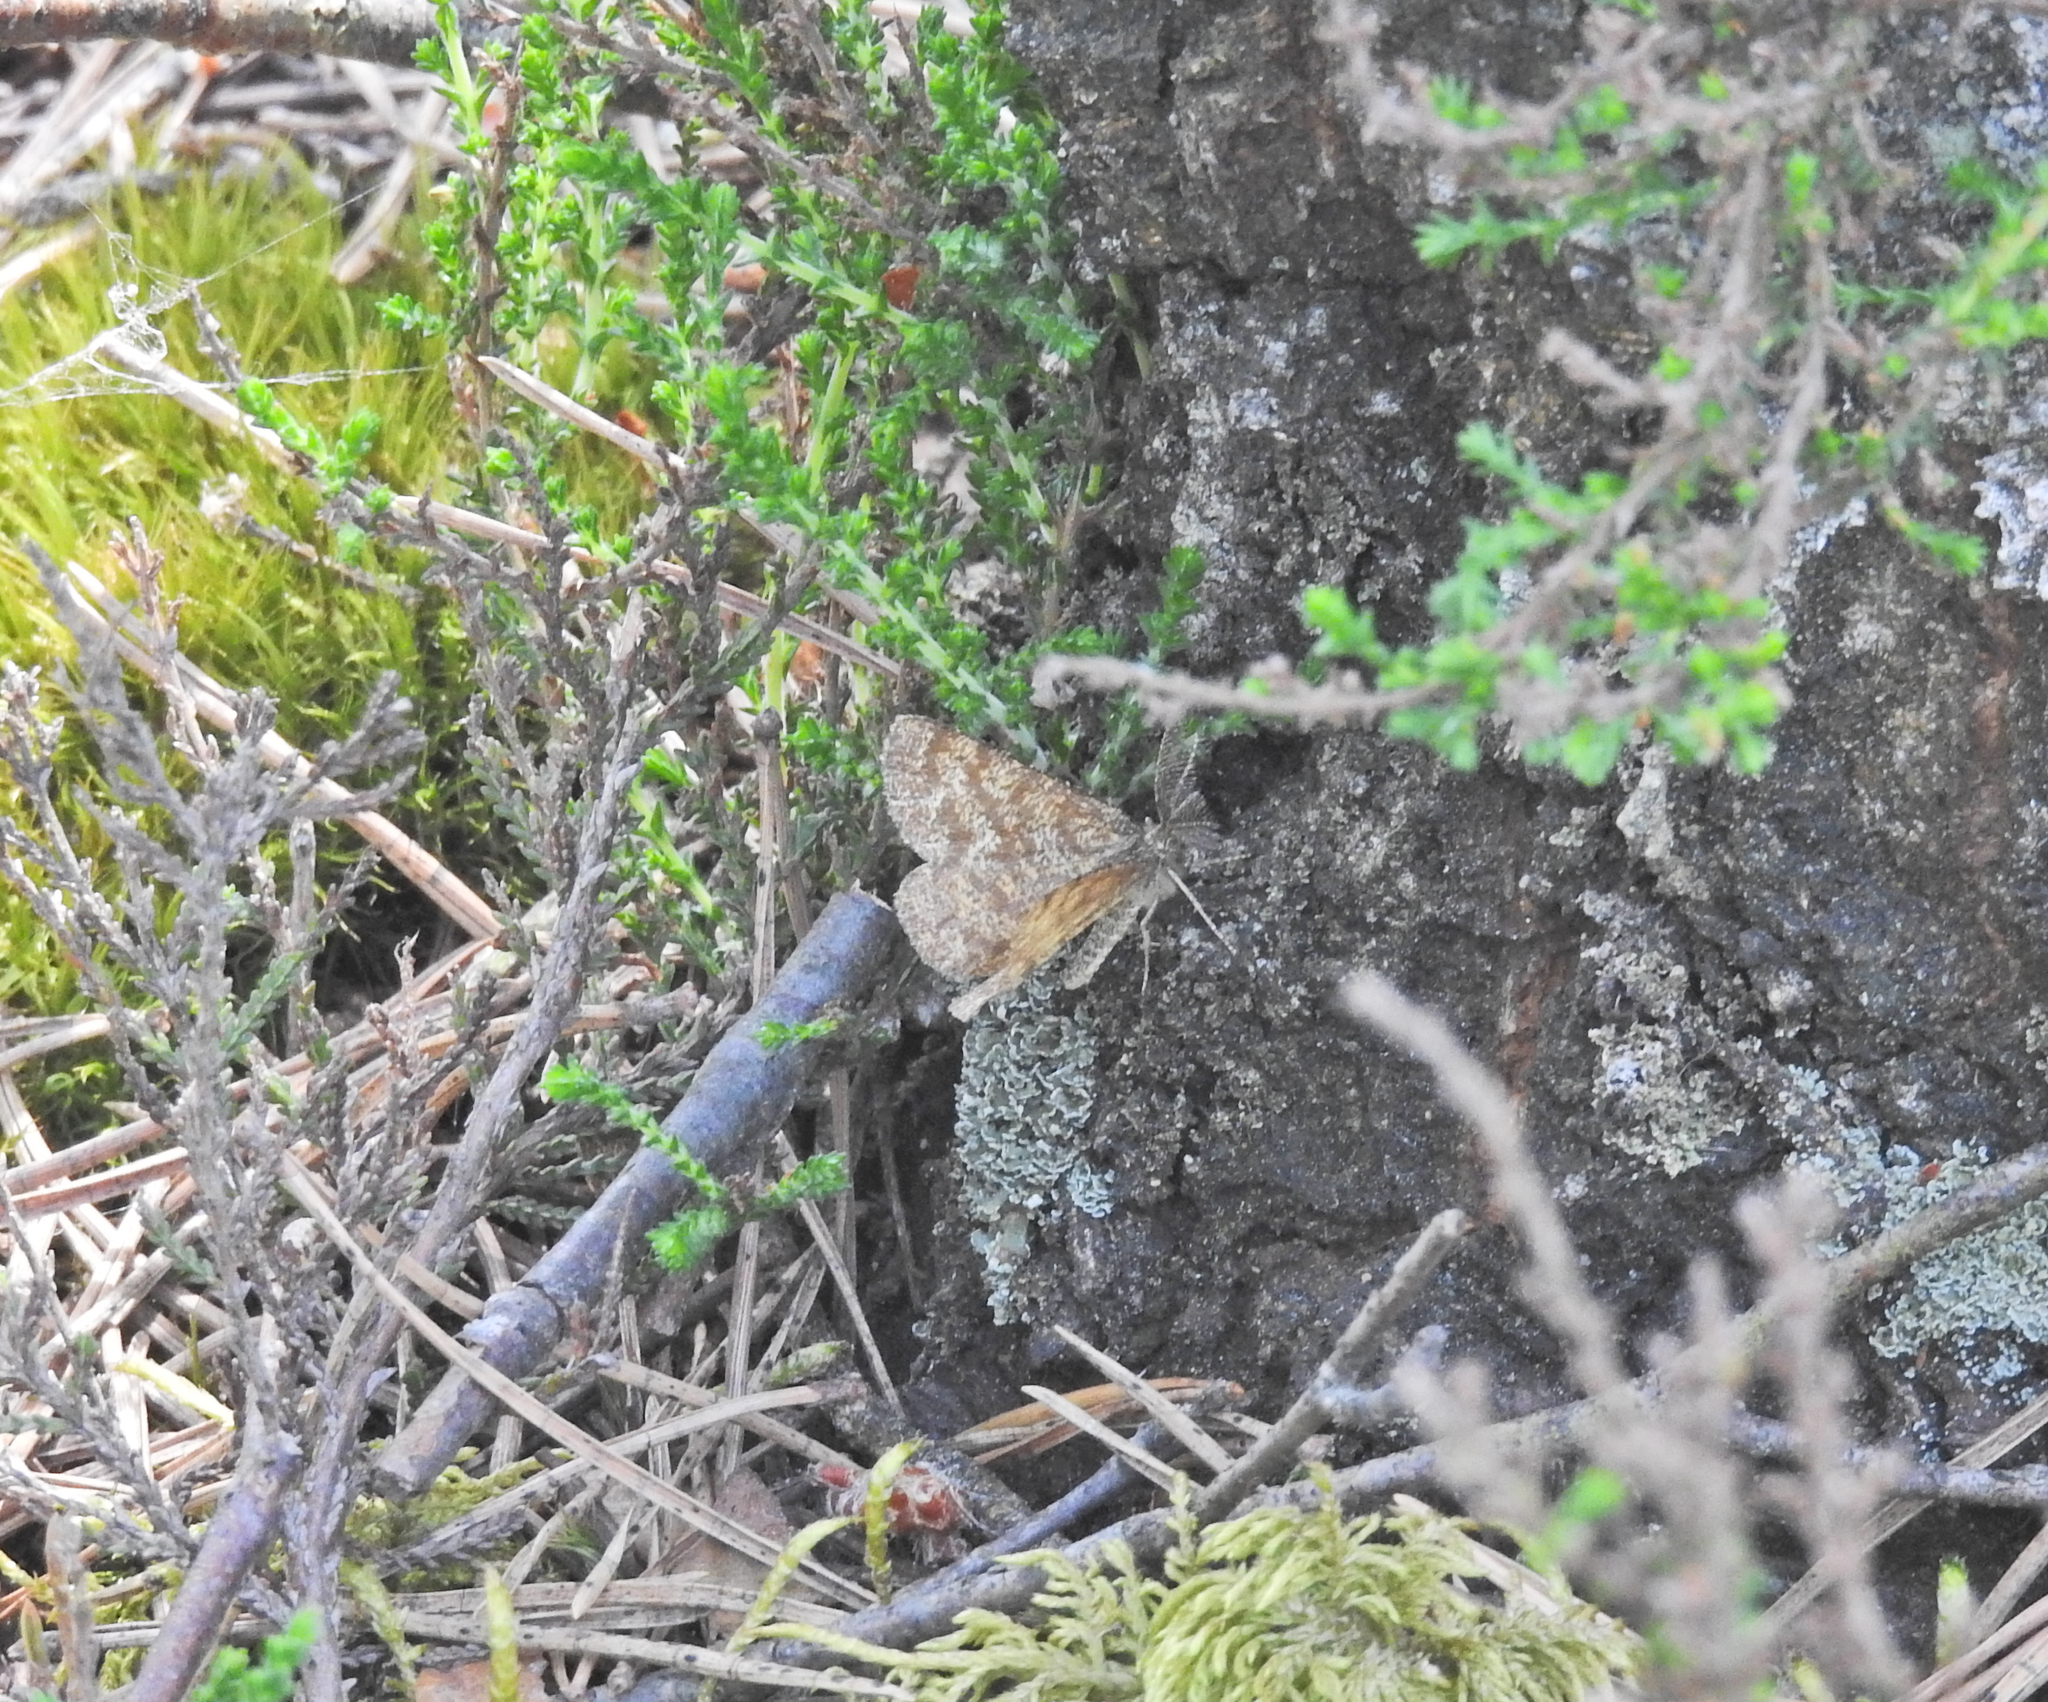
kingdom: Animalia
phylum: Arthropoda
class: Insecta
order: Lepidoptera
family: Geometridae
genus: Ematurga
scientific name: Ematurga atomaria
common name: Common heath
